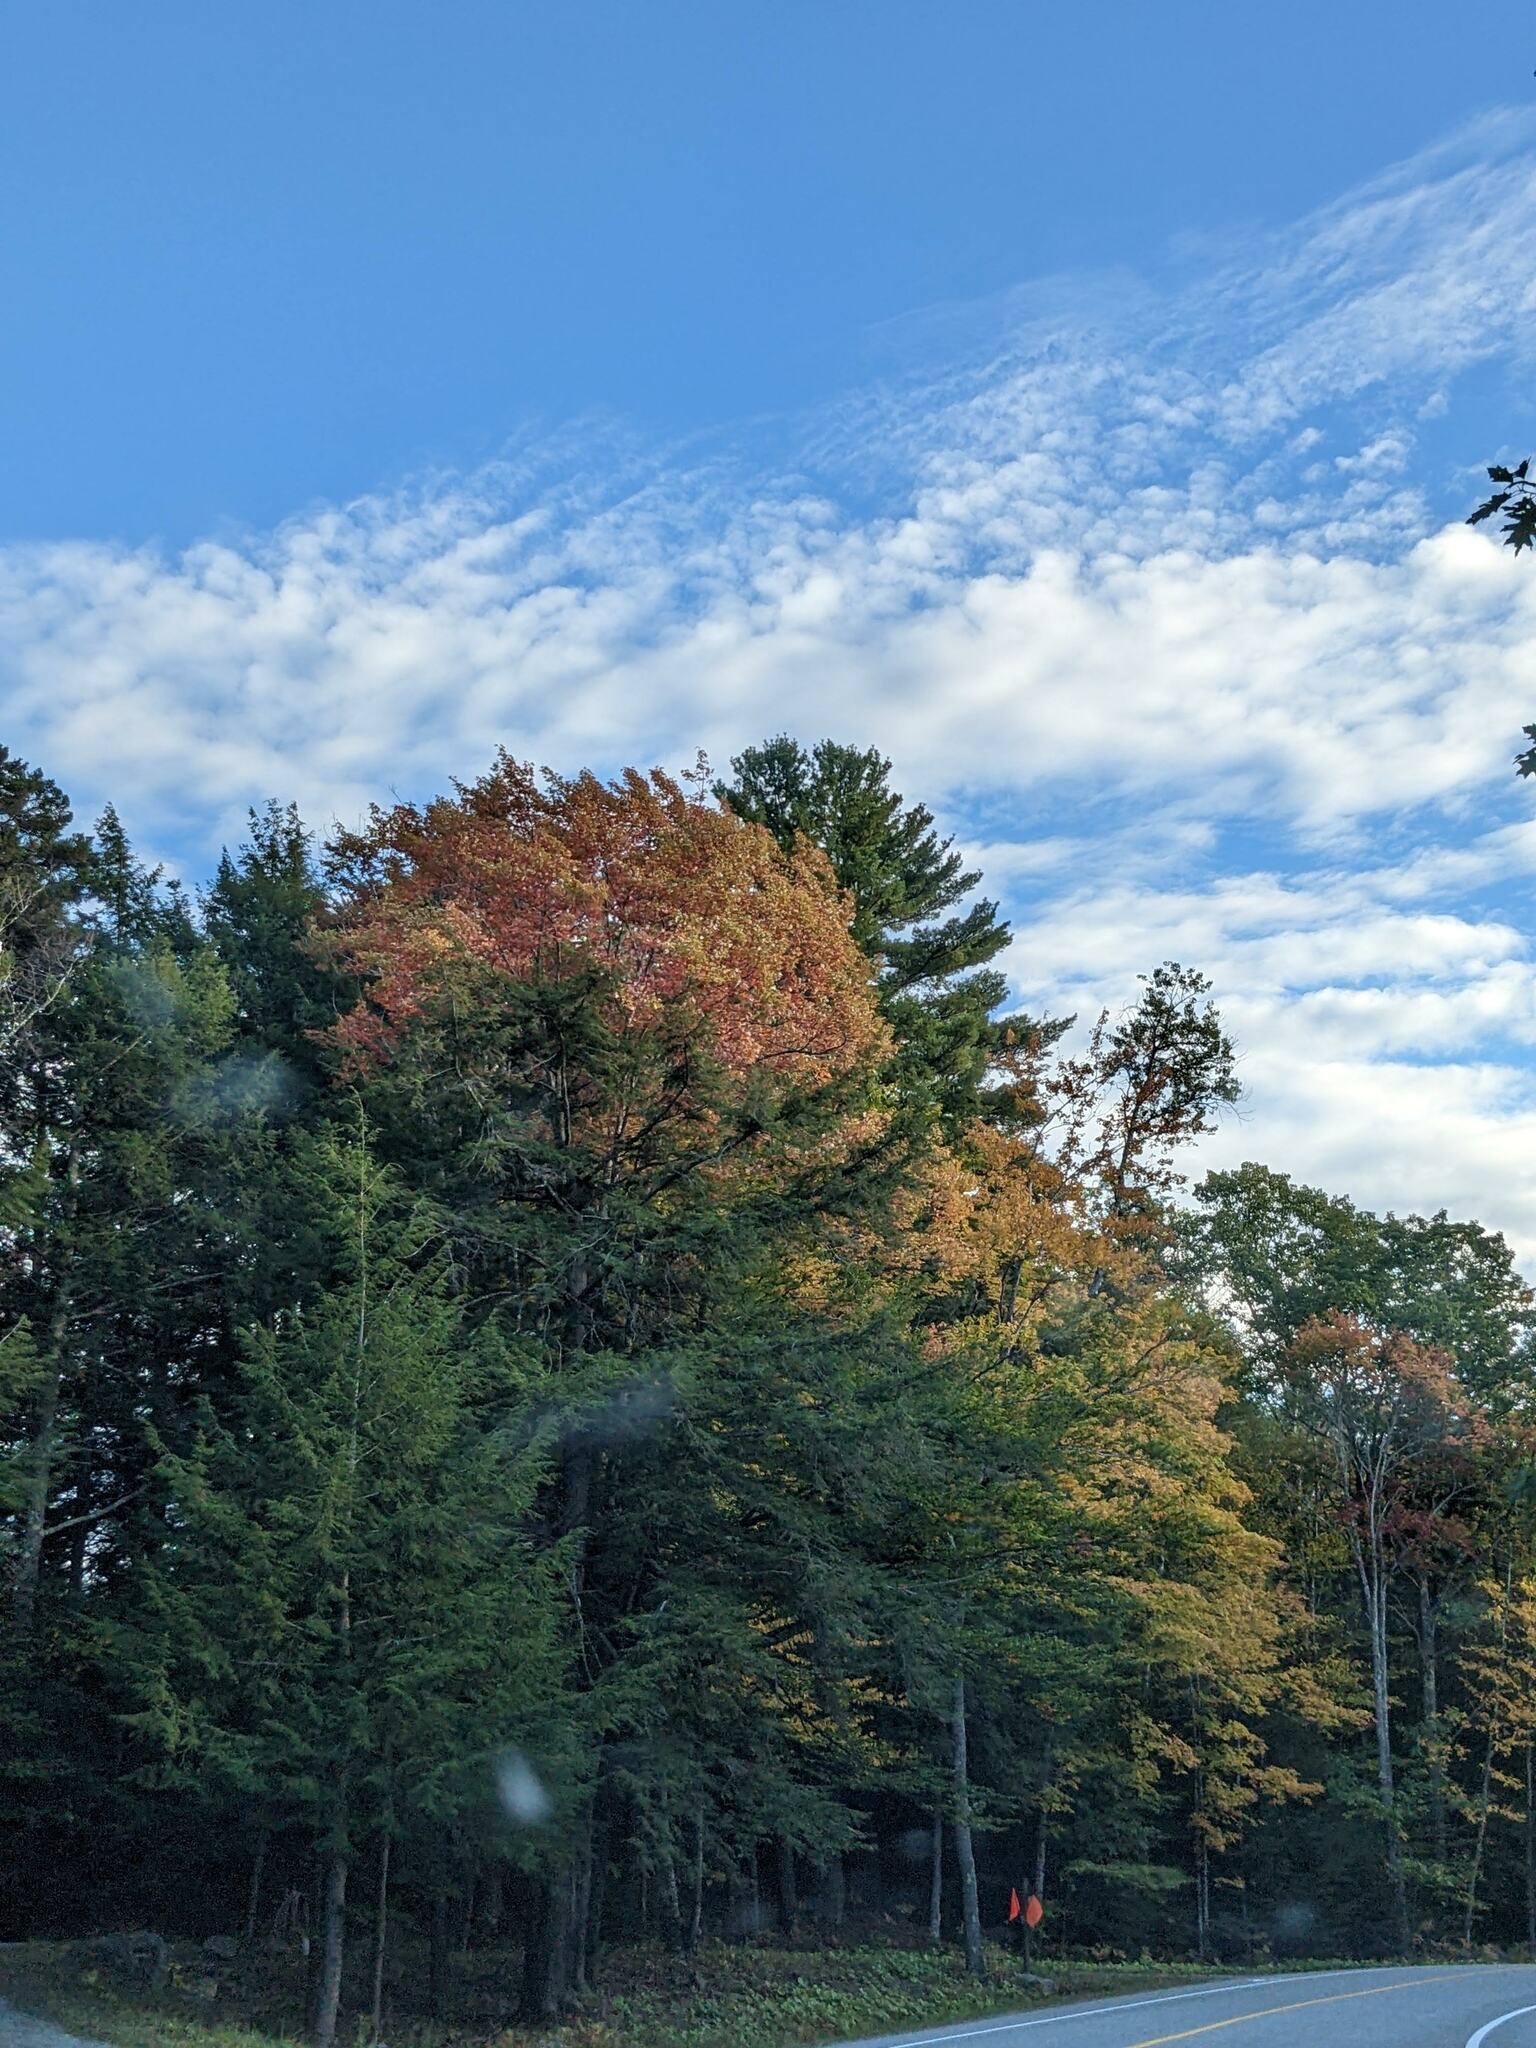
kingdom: Plantae
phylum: Tracheophyta
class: Pinopsida
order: Pinales
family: Pinaceae
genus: Pinus
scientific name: Pinus strobus
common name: Weymouth pine
